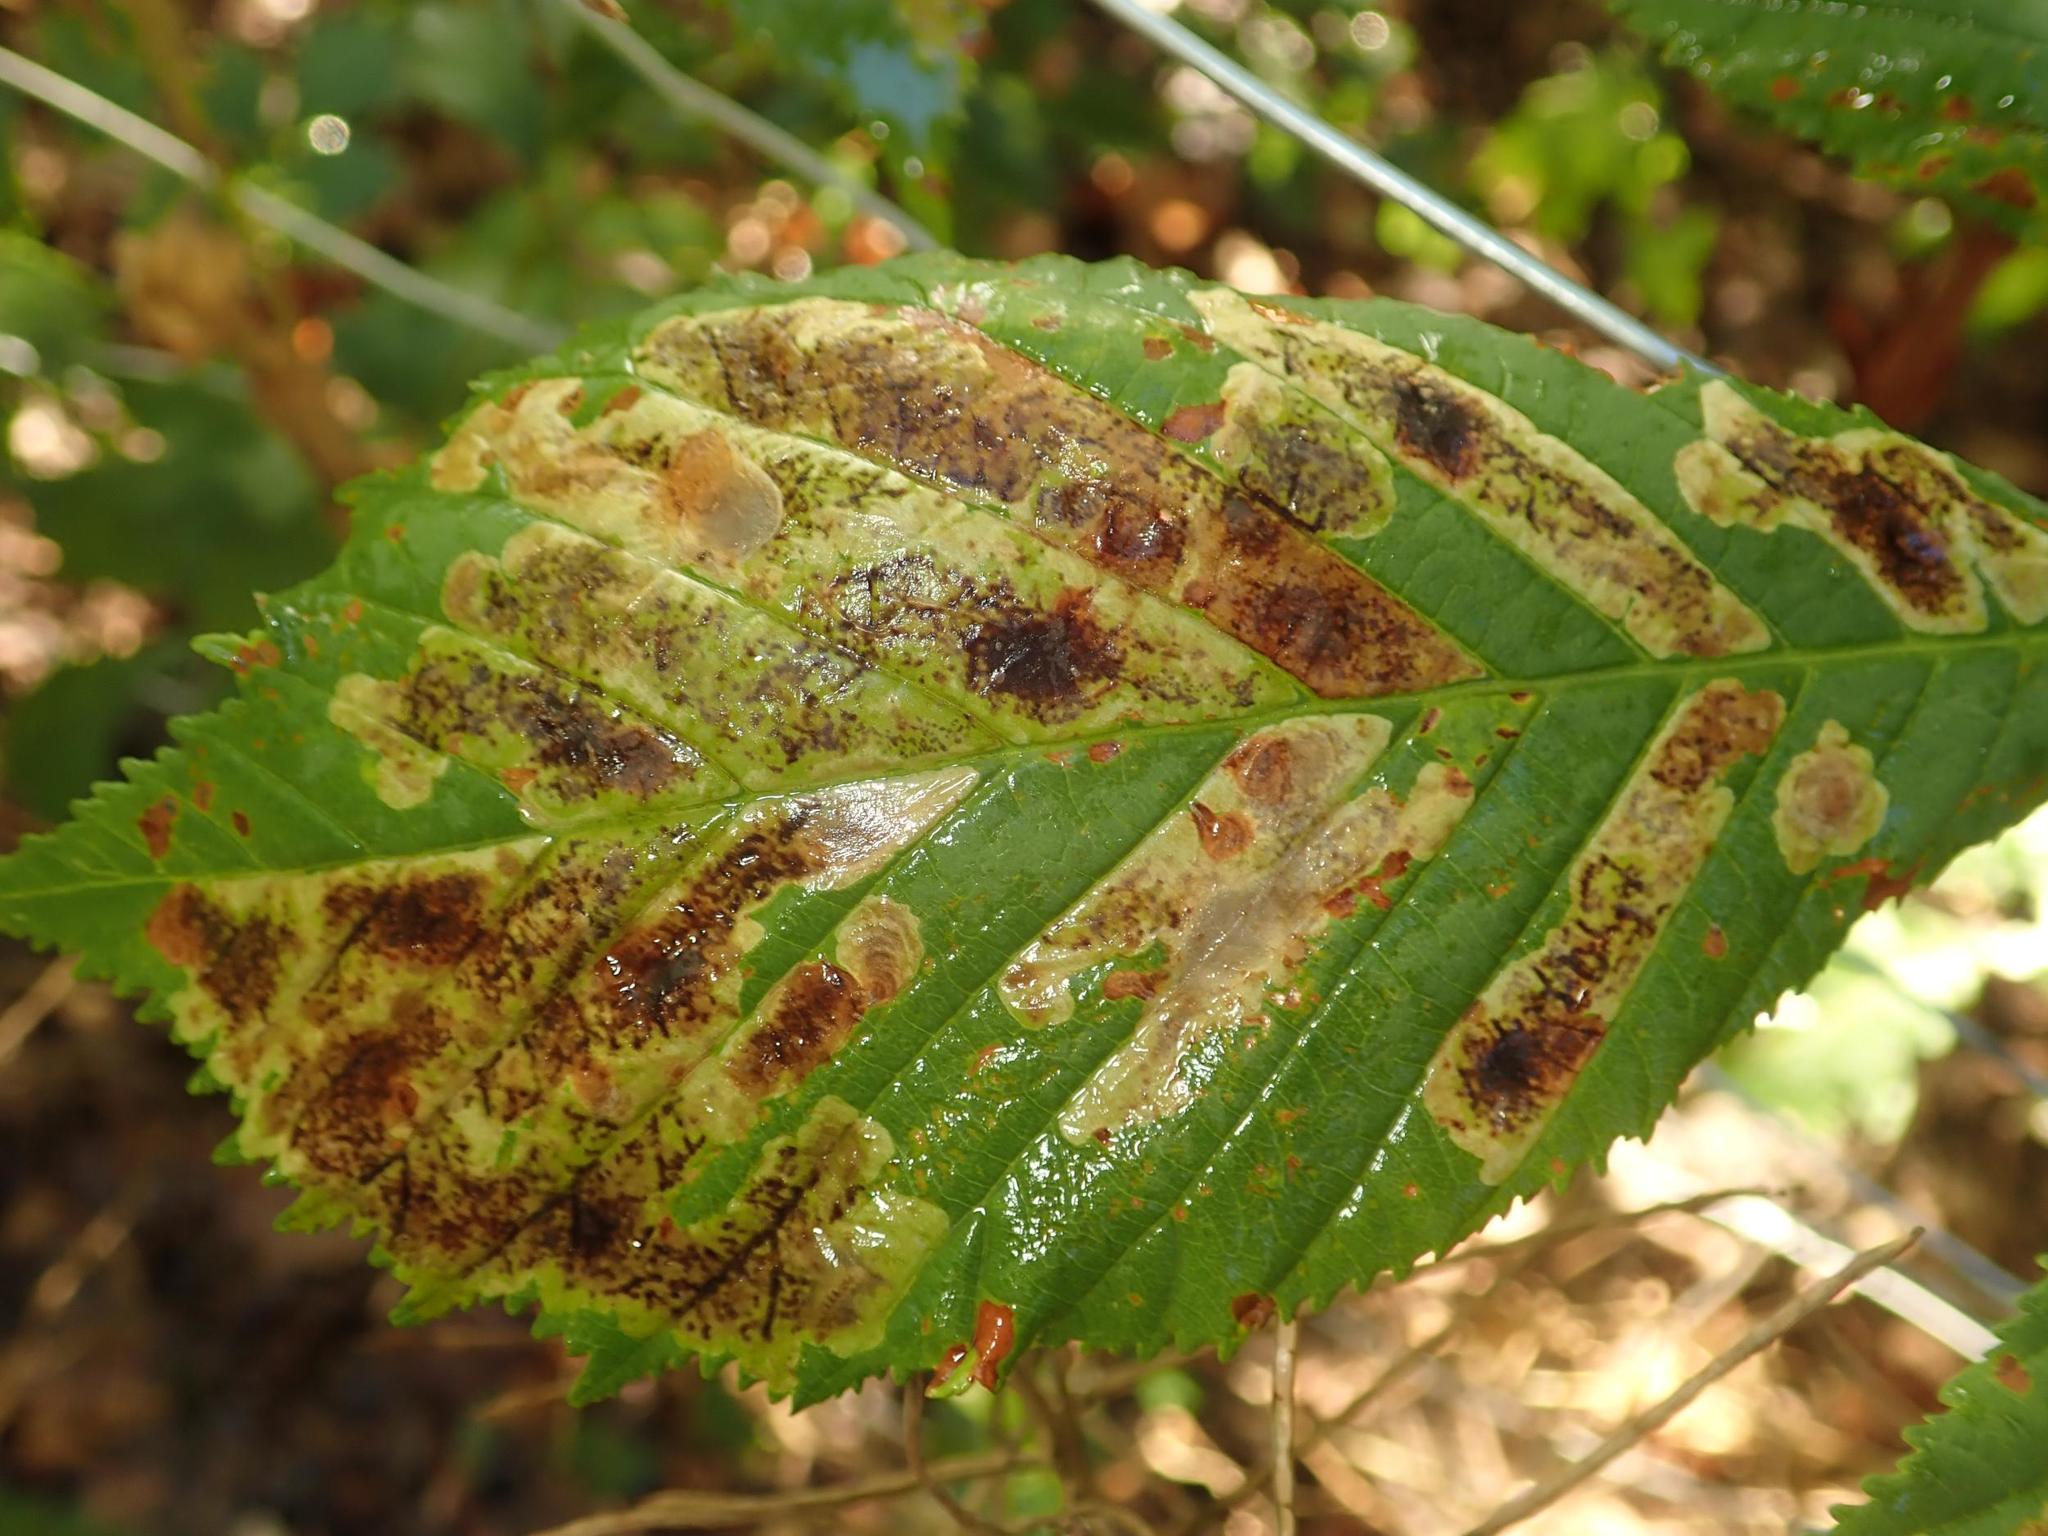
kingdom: Animalia
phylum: Arthropoda
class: Insecta
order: Lepidoptera
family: Gracillariidae
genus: Cameraria
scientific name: Cameraria ohridella
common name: Horse-chestnut leaf-miner
